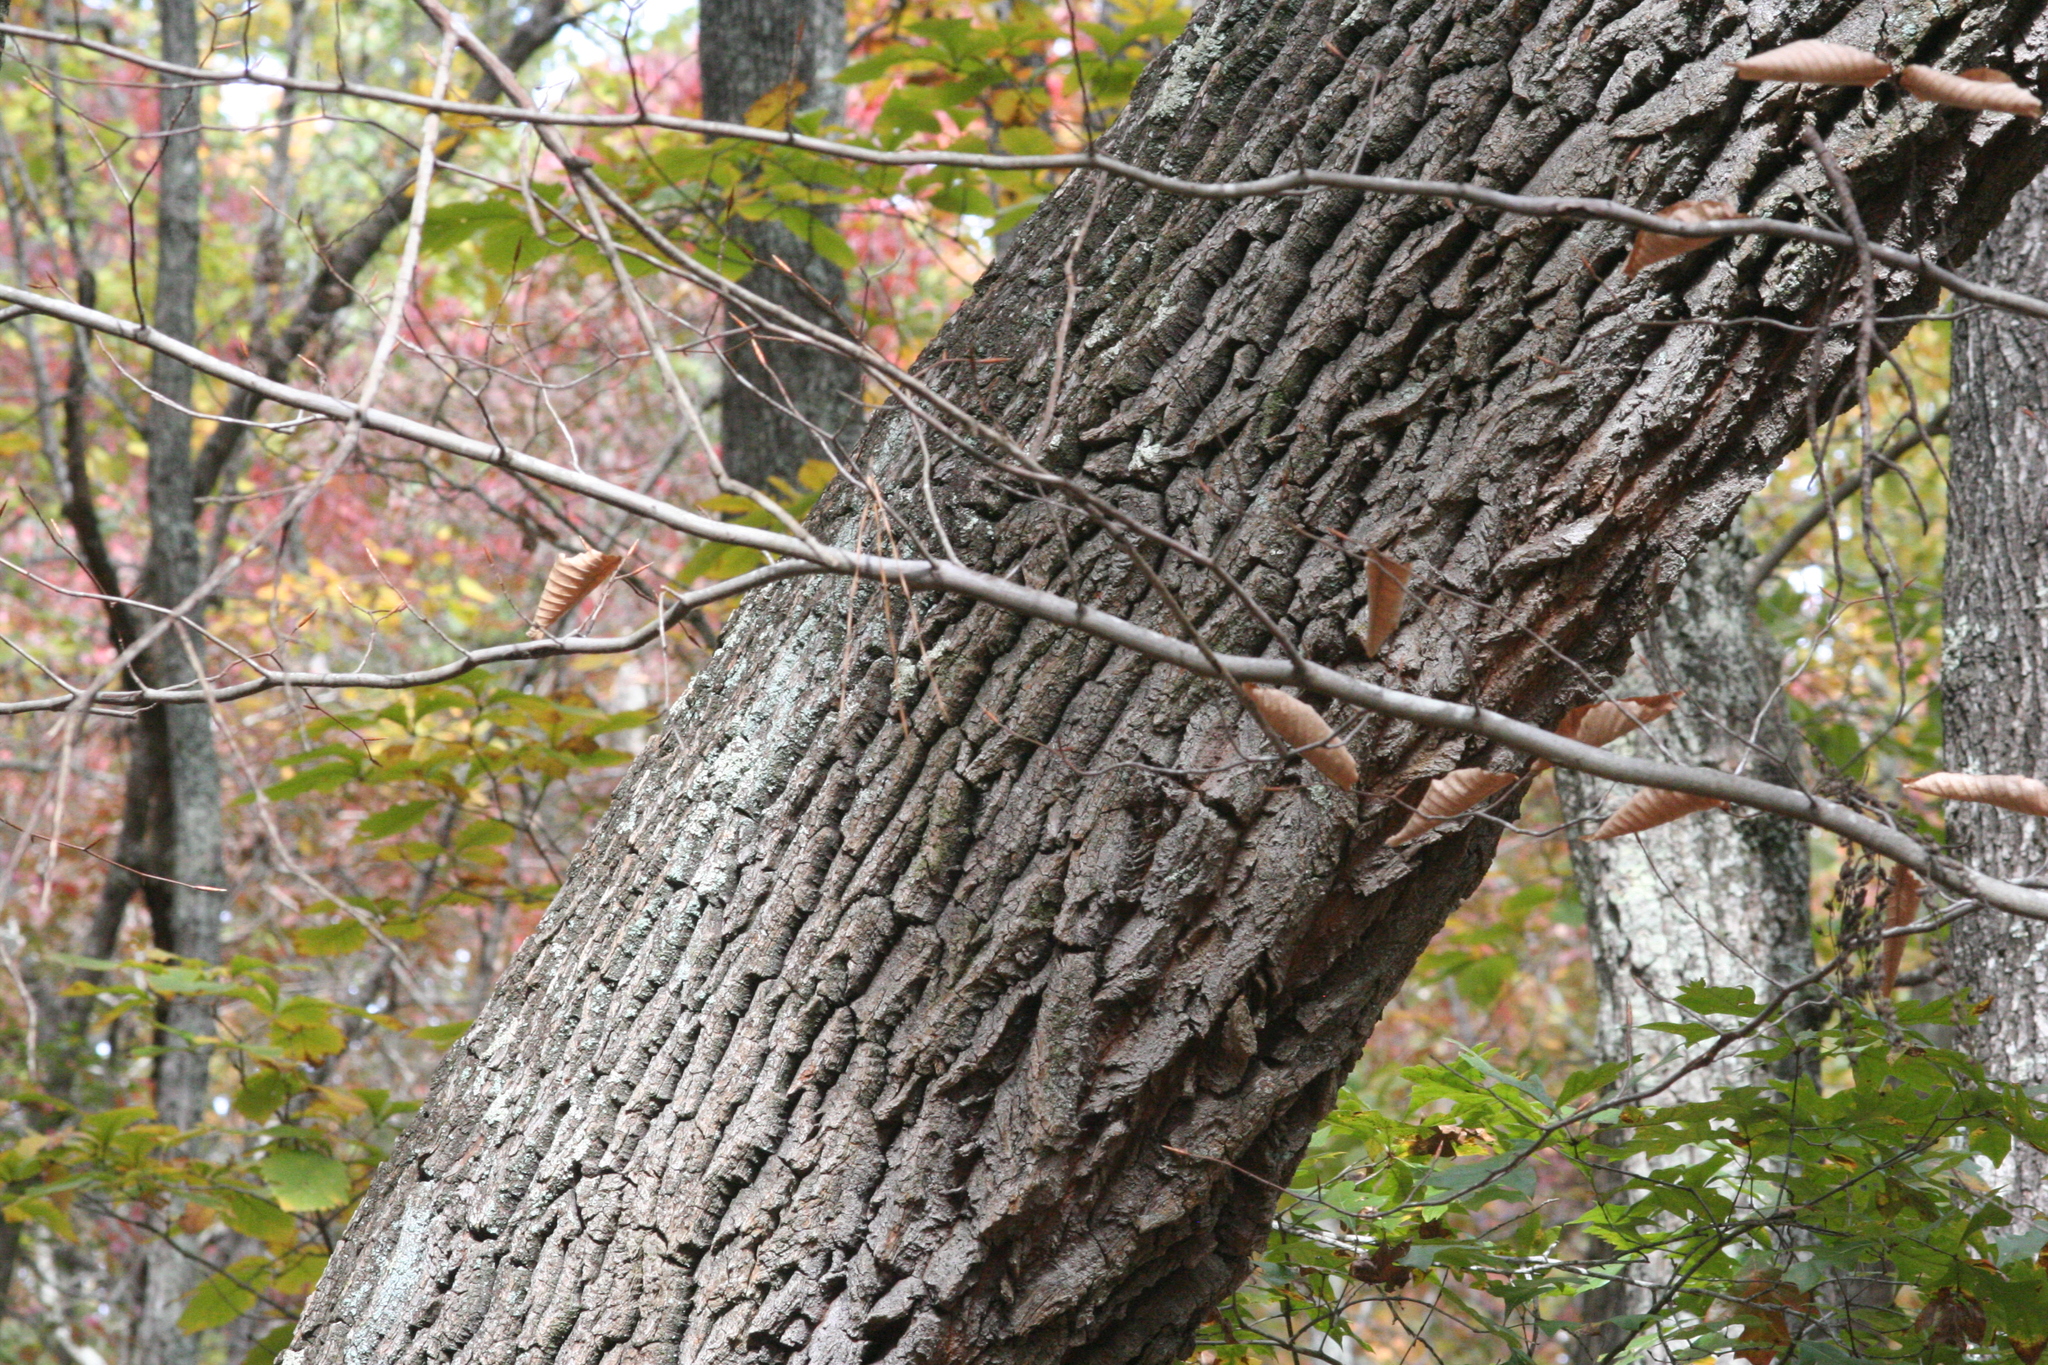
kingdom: Plantae
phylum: Tracheophyta
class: Magnoliopsida
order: Ericales
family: Ericaceae
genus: Oxydendrum
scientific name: Oxydendrum arboreum
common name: Sourwood
